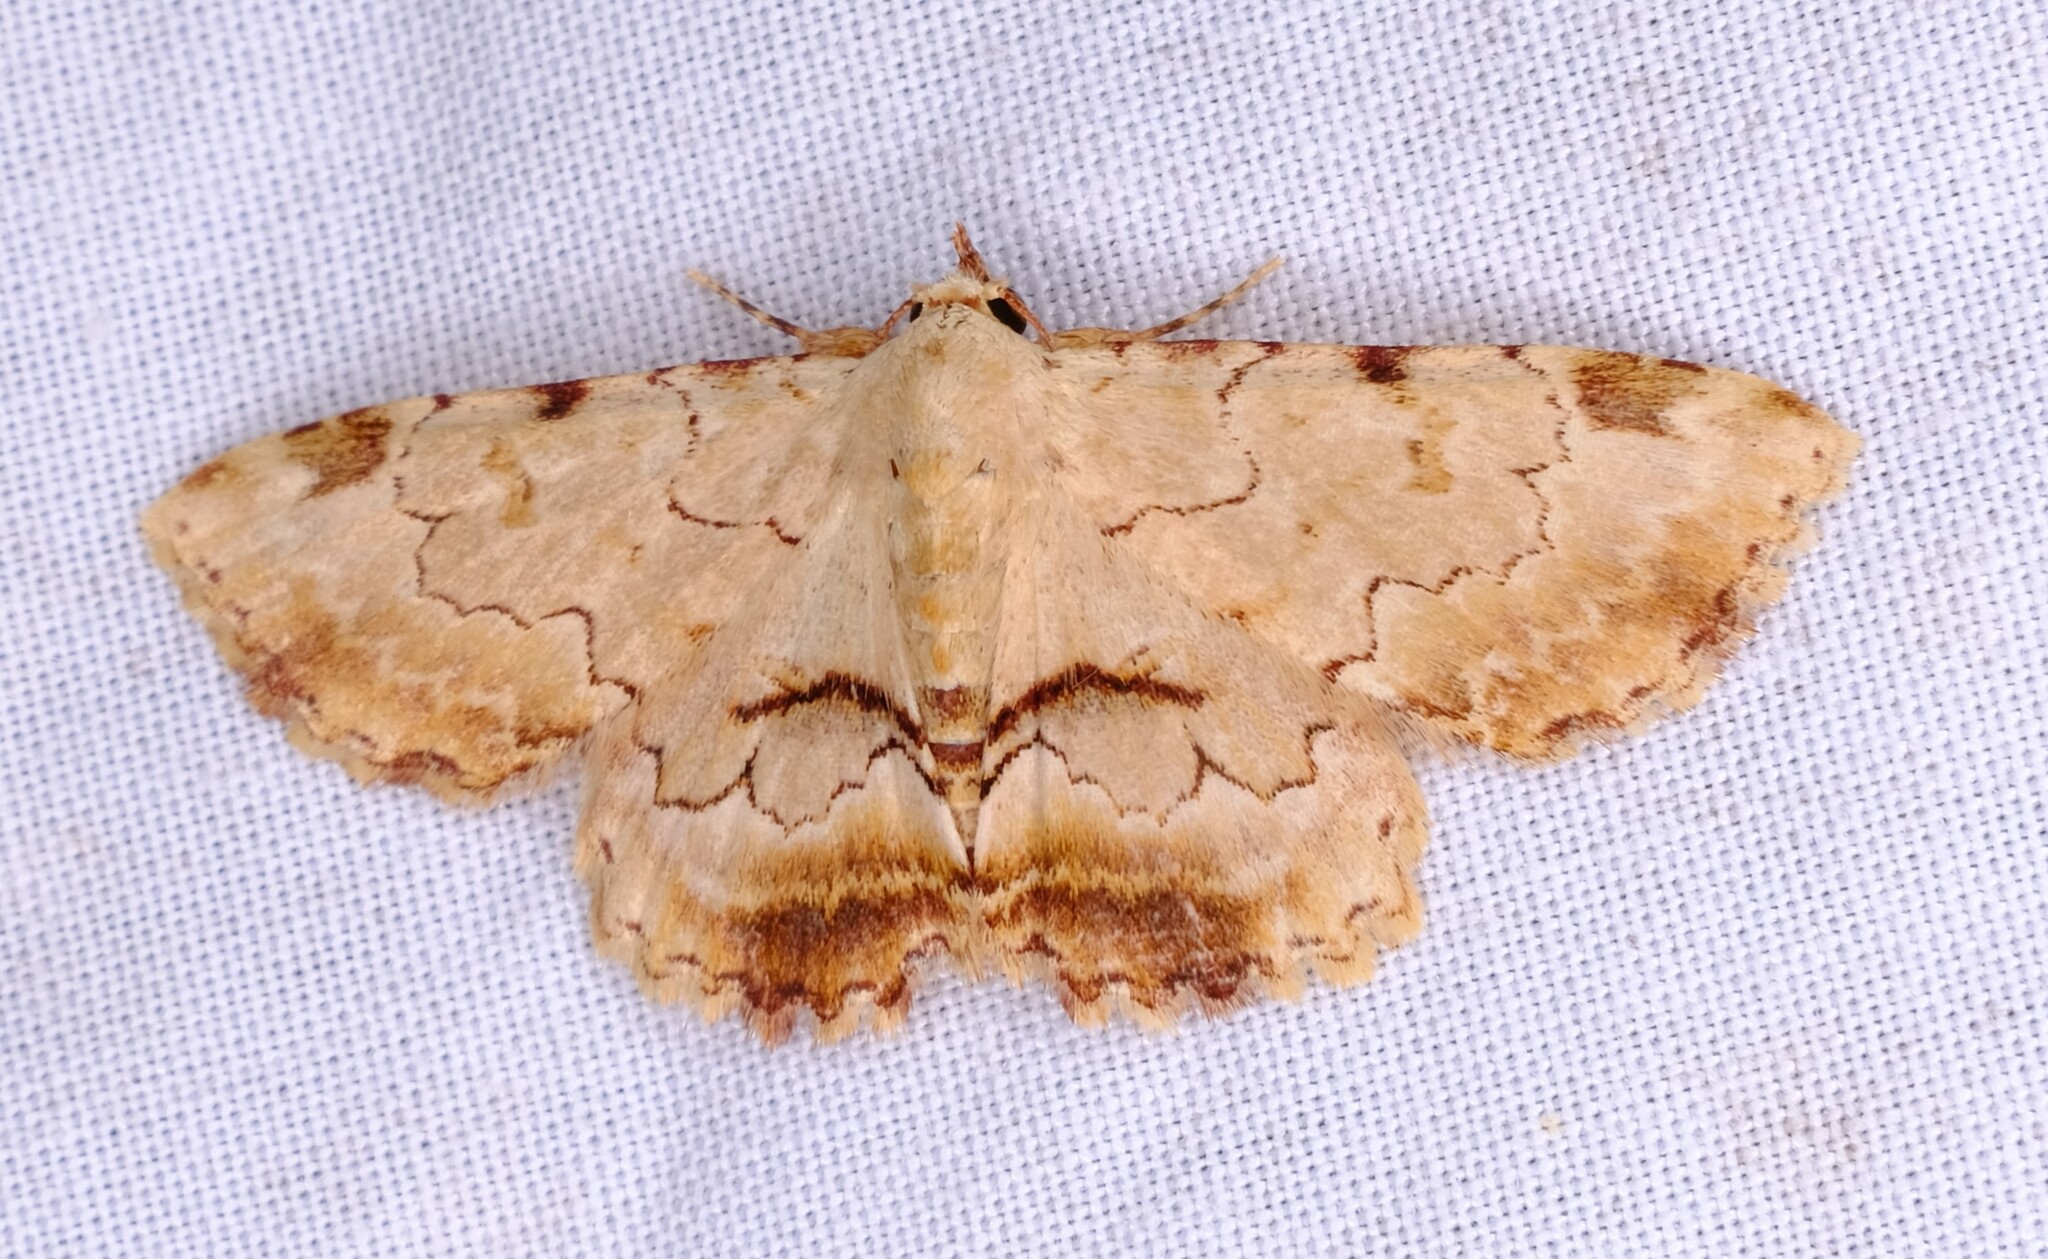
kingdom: Animalia
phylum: Arthropoda
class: Insecta
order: Lepidoptera
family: Erebidae
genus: Sandava
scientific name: Sandava xylistis
